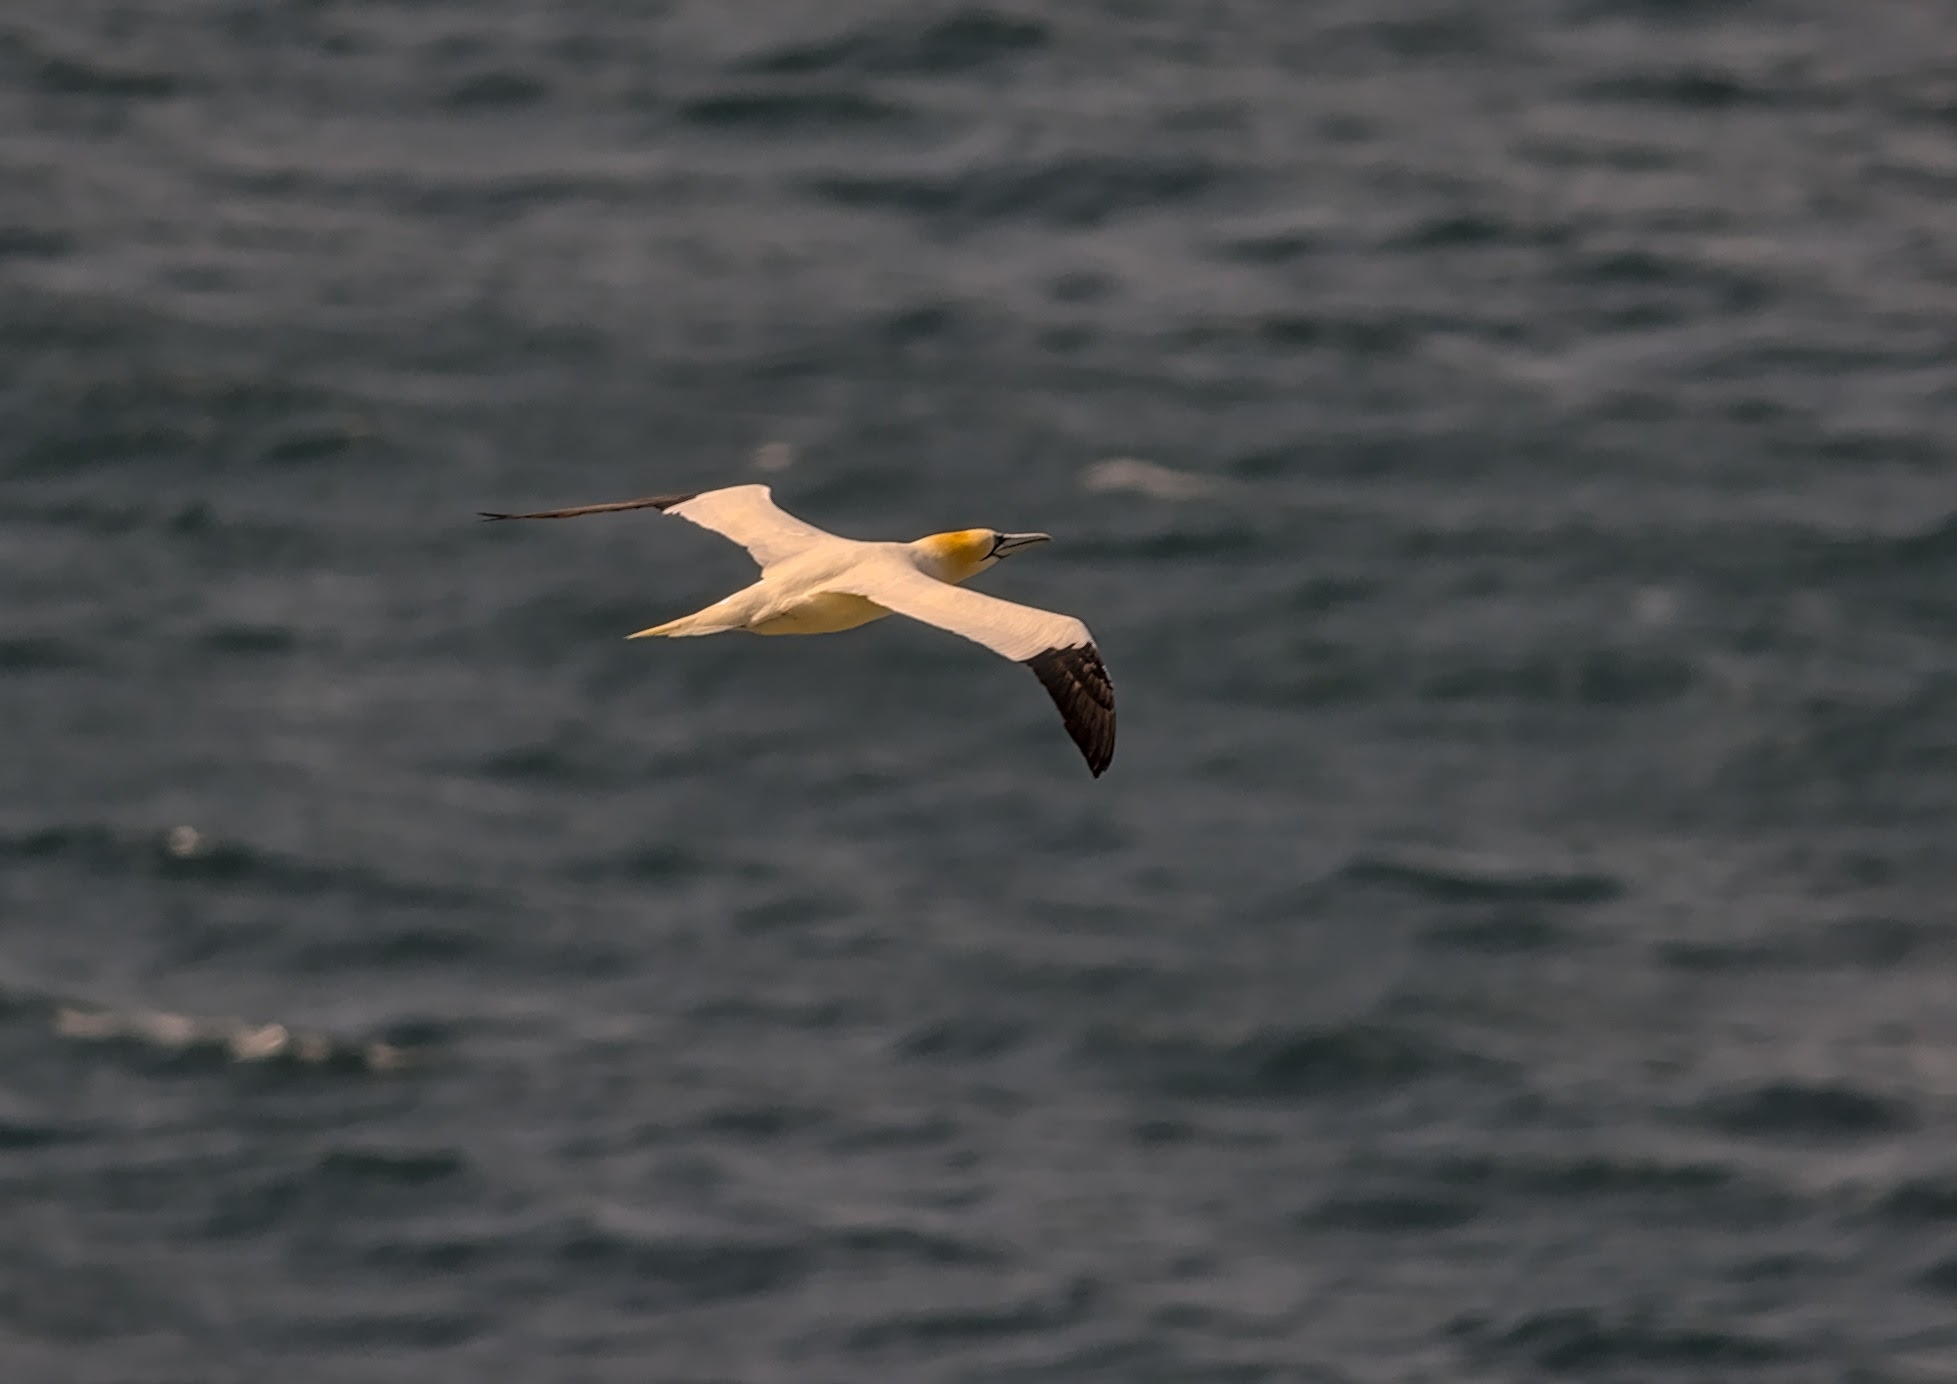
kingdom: Animalia
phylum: Chordata
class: Aves
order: Suliformes
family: Sulidae
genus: Morus
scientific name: Morus bassanus
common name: Northern gannet
